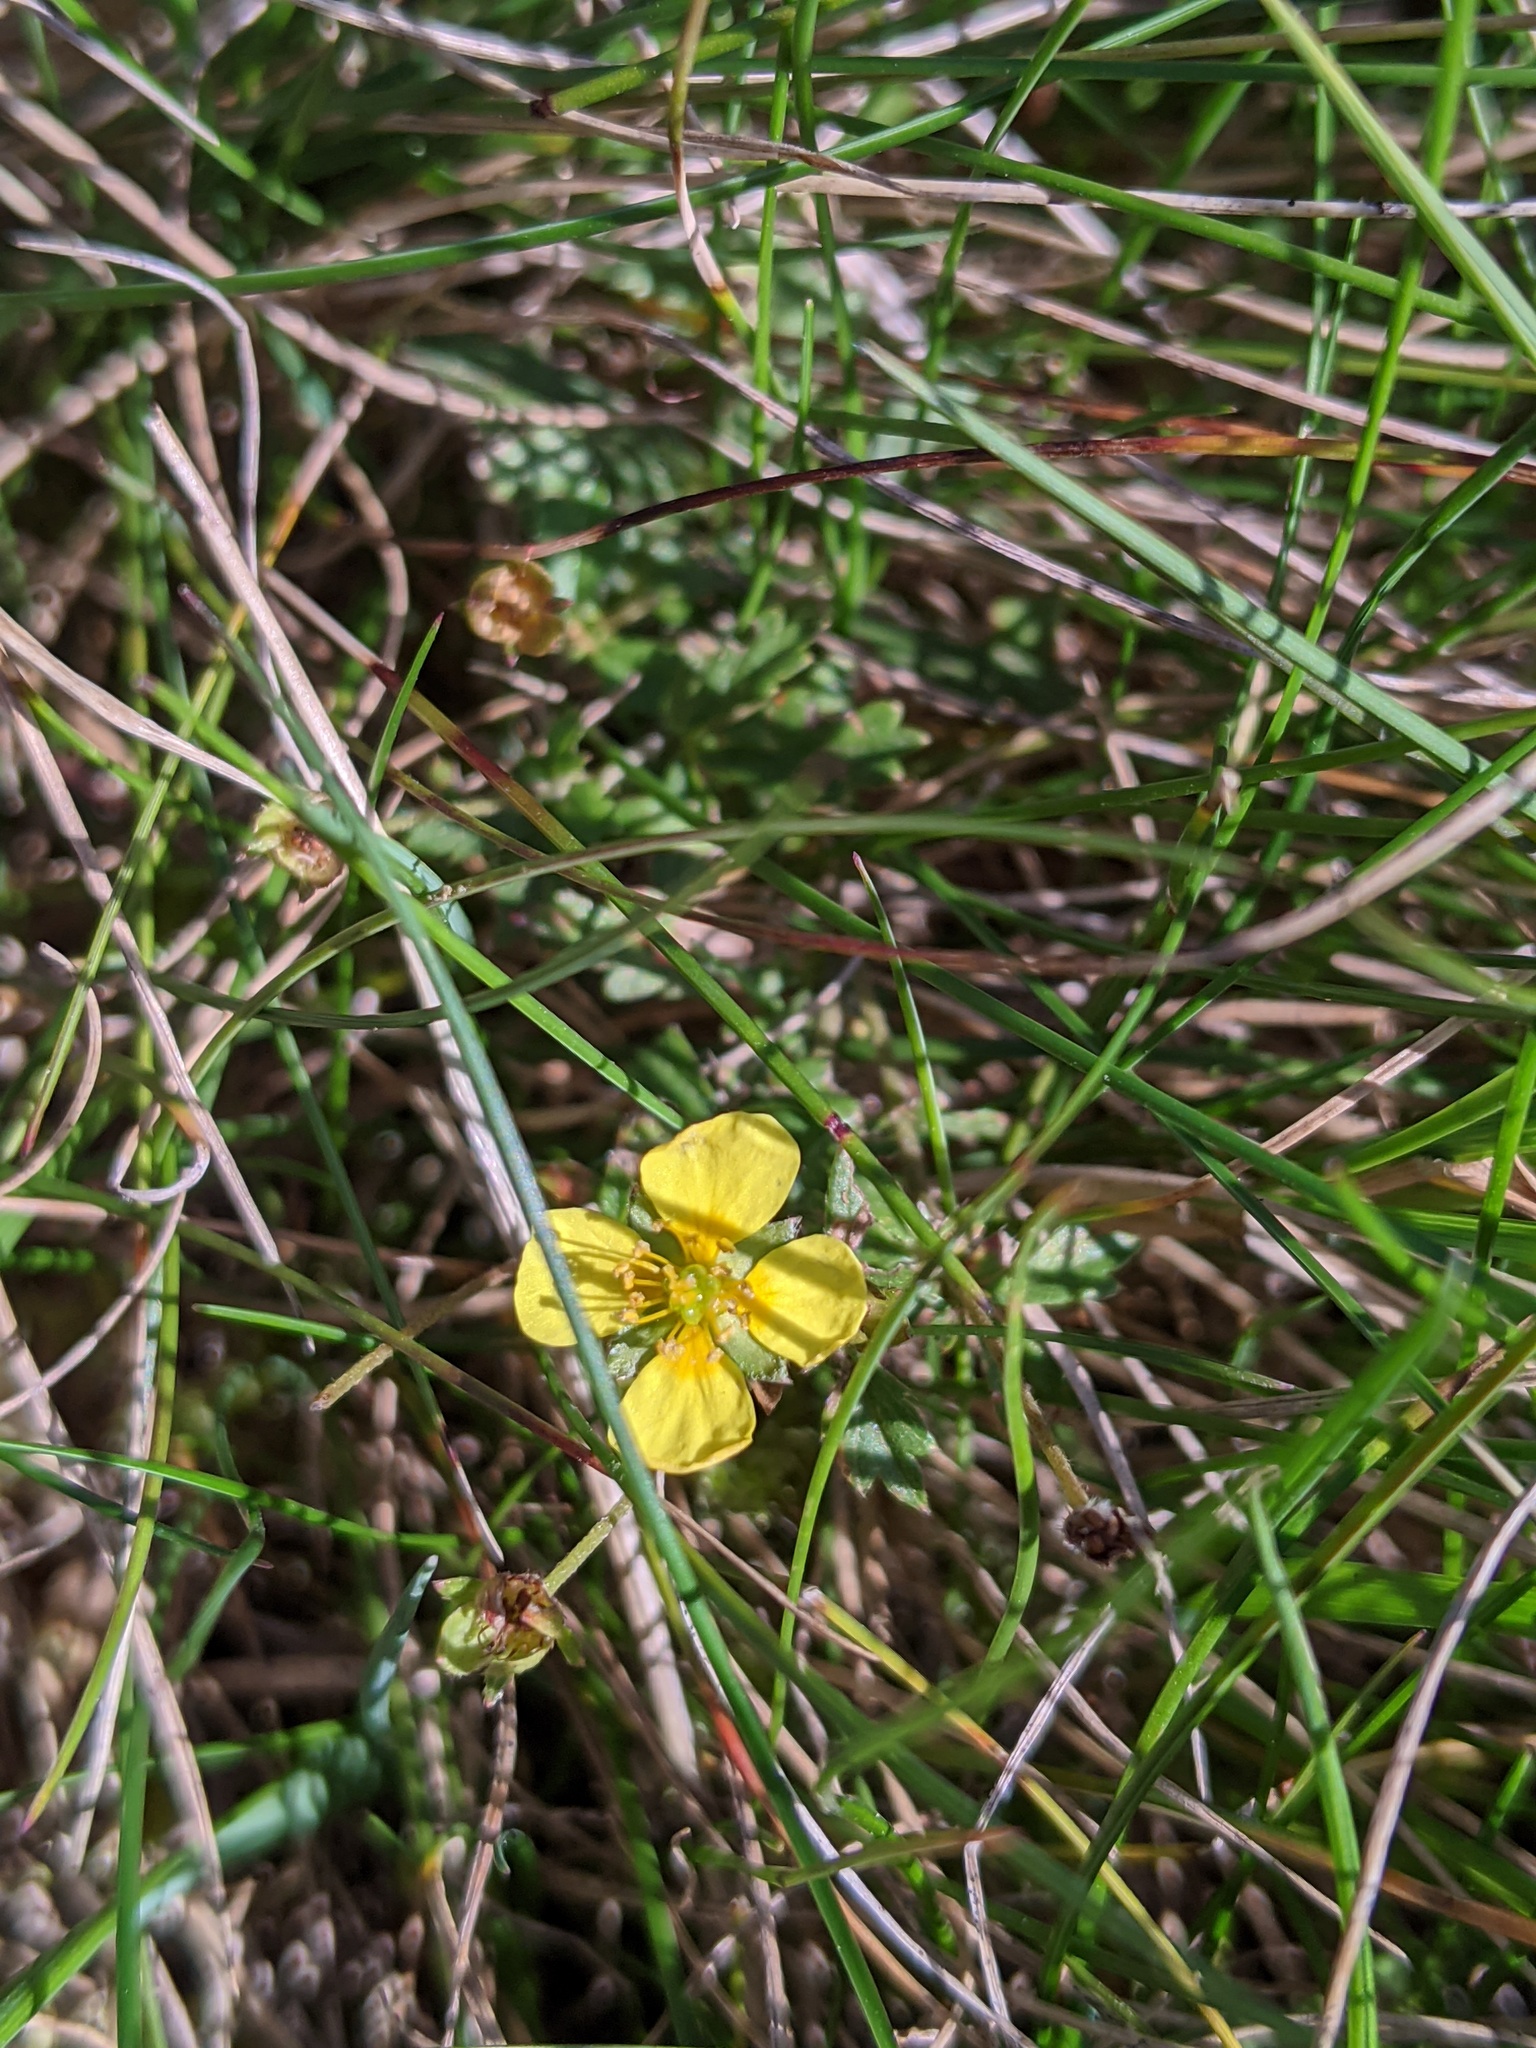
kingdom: Plantae
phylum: Tracheophyta
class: Magnoliopsida
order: Rosales
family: Rosaceae
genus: Potentilla
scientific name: Potentilla erecta
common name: Tormentil
